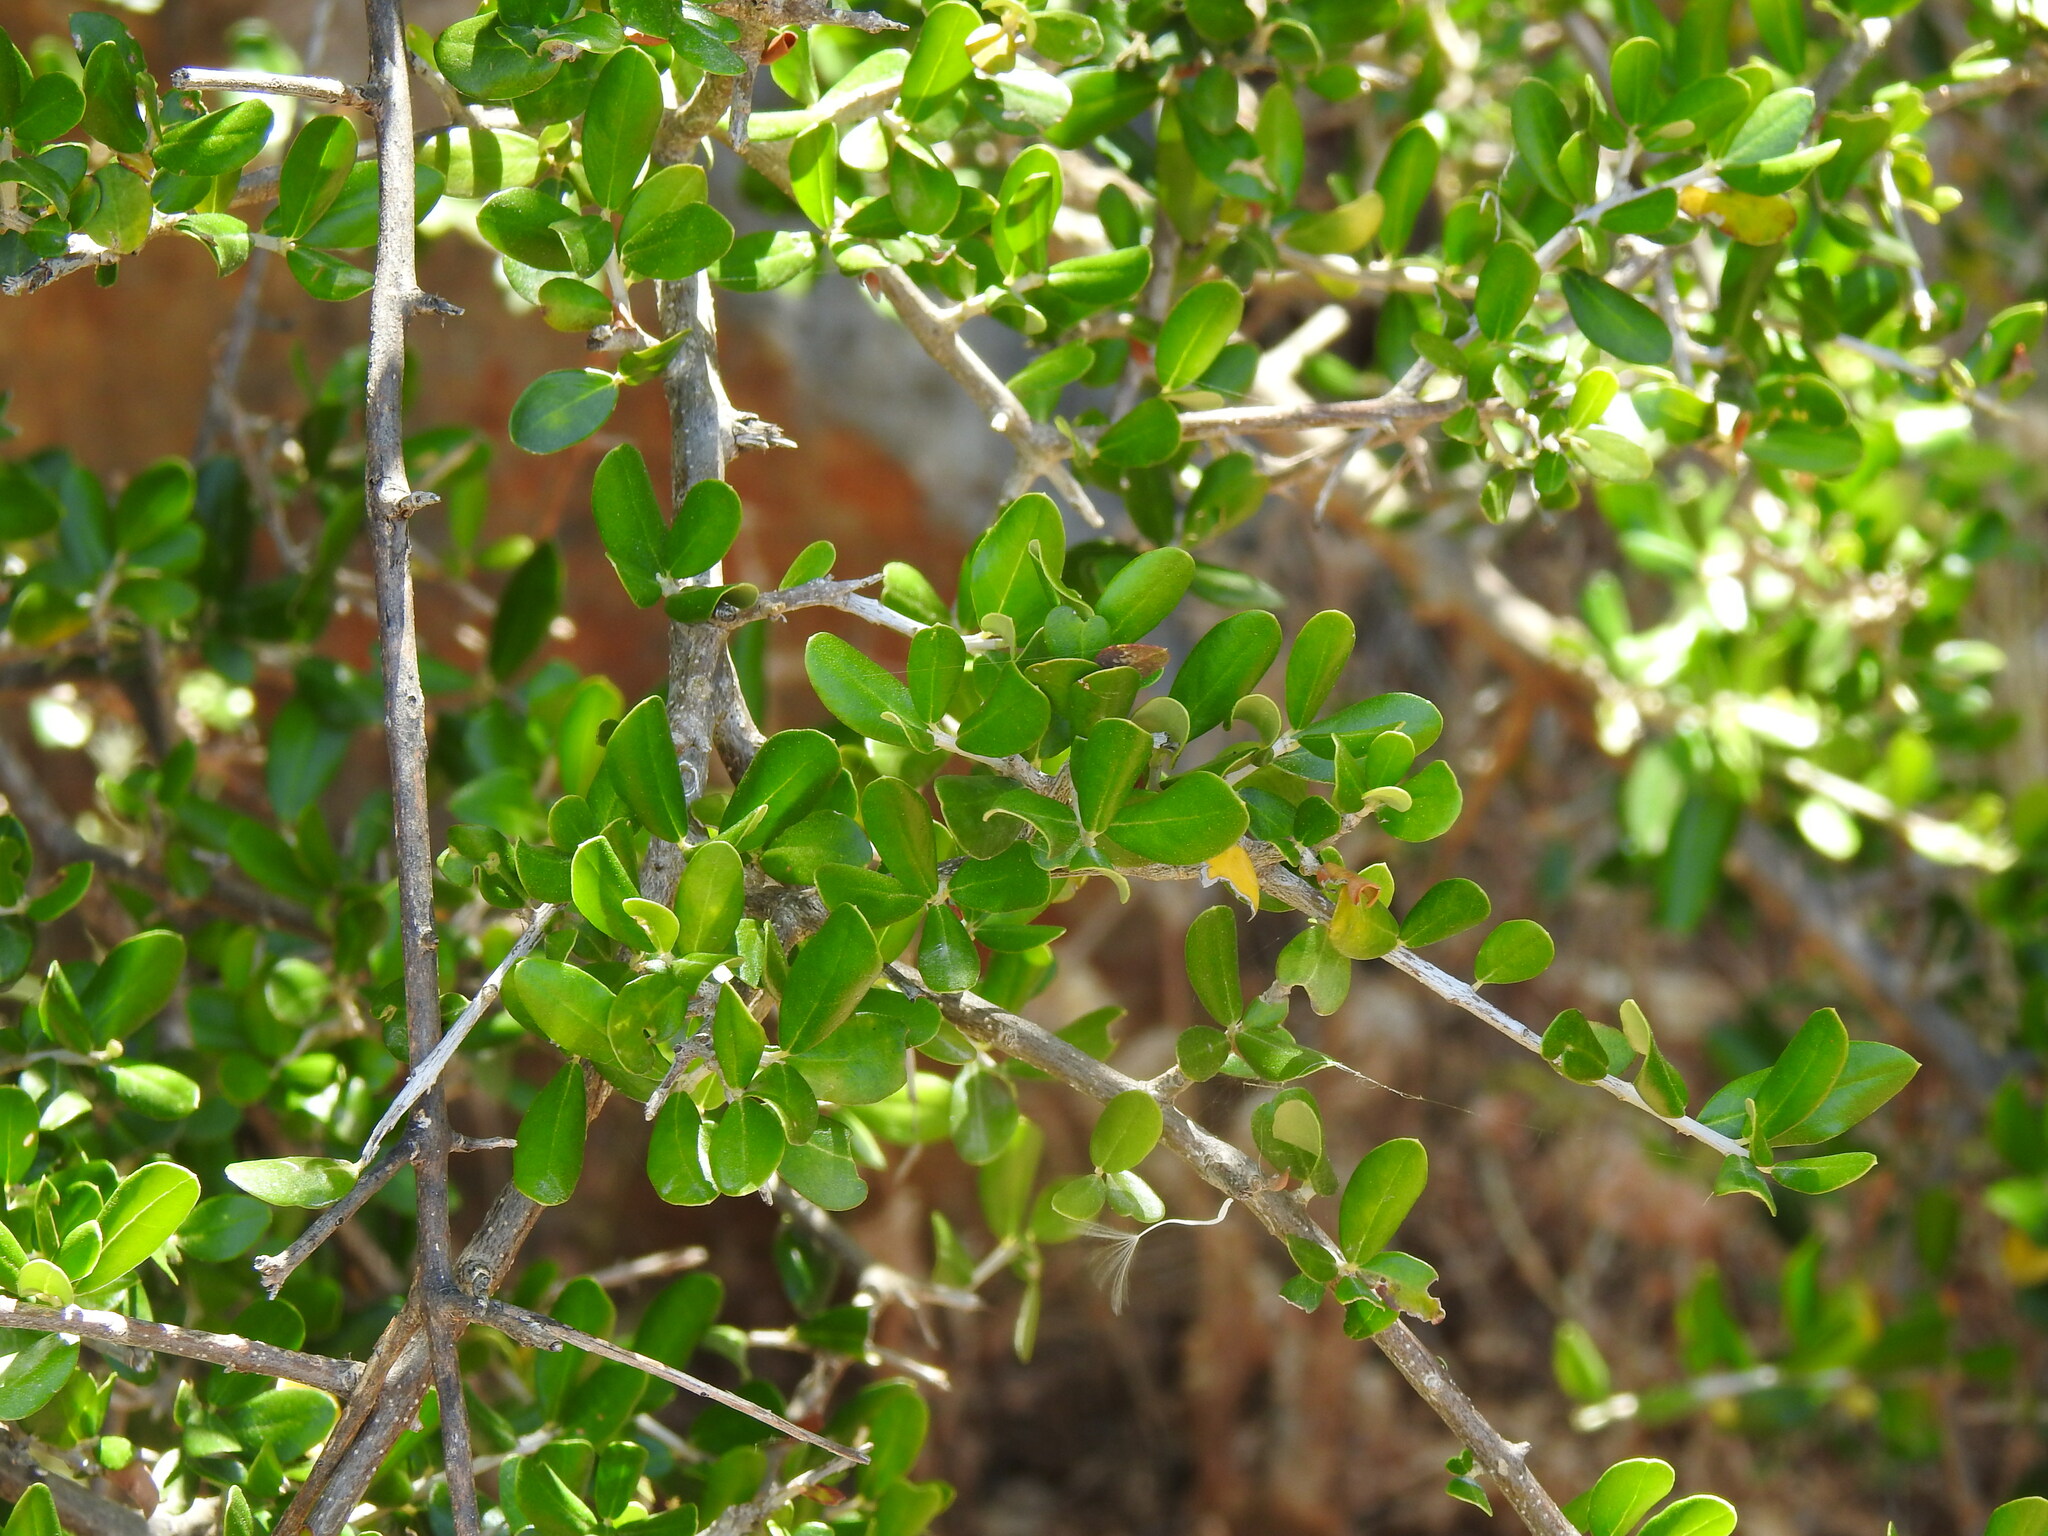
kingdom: Plantae
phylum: Tracheophyta
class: Magnoliopsida
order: Lamiales
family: Oleaceae
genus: Olea
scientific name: Olea europaea
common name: Olive
